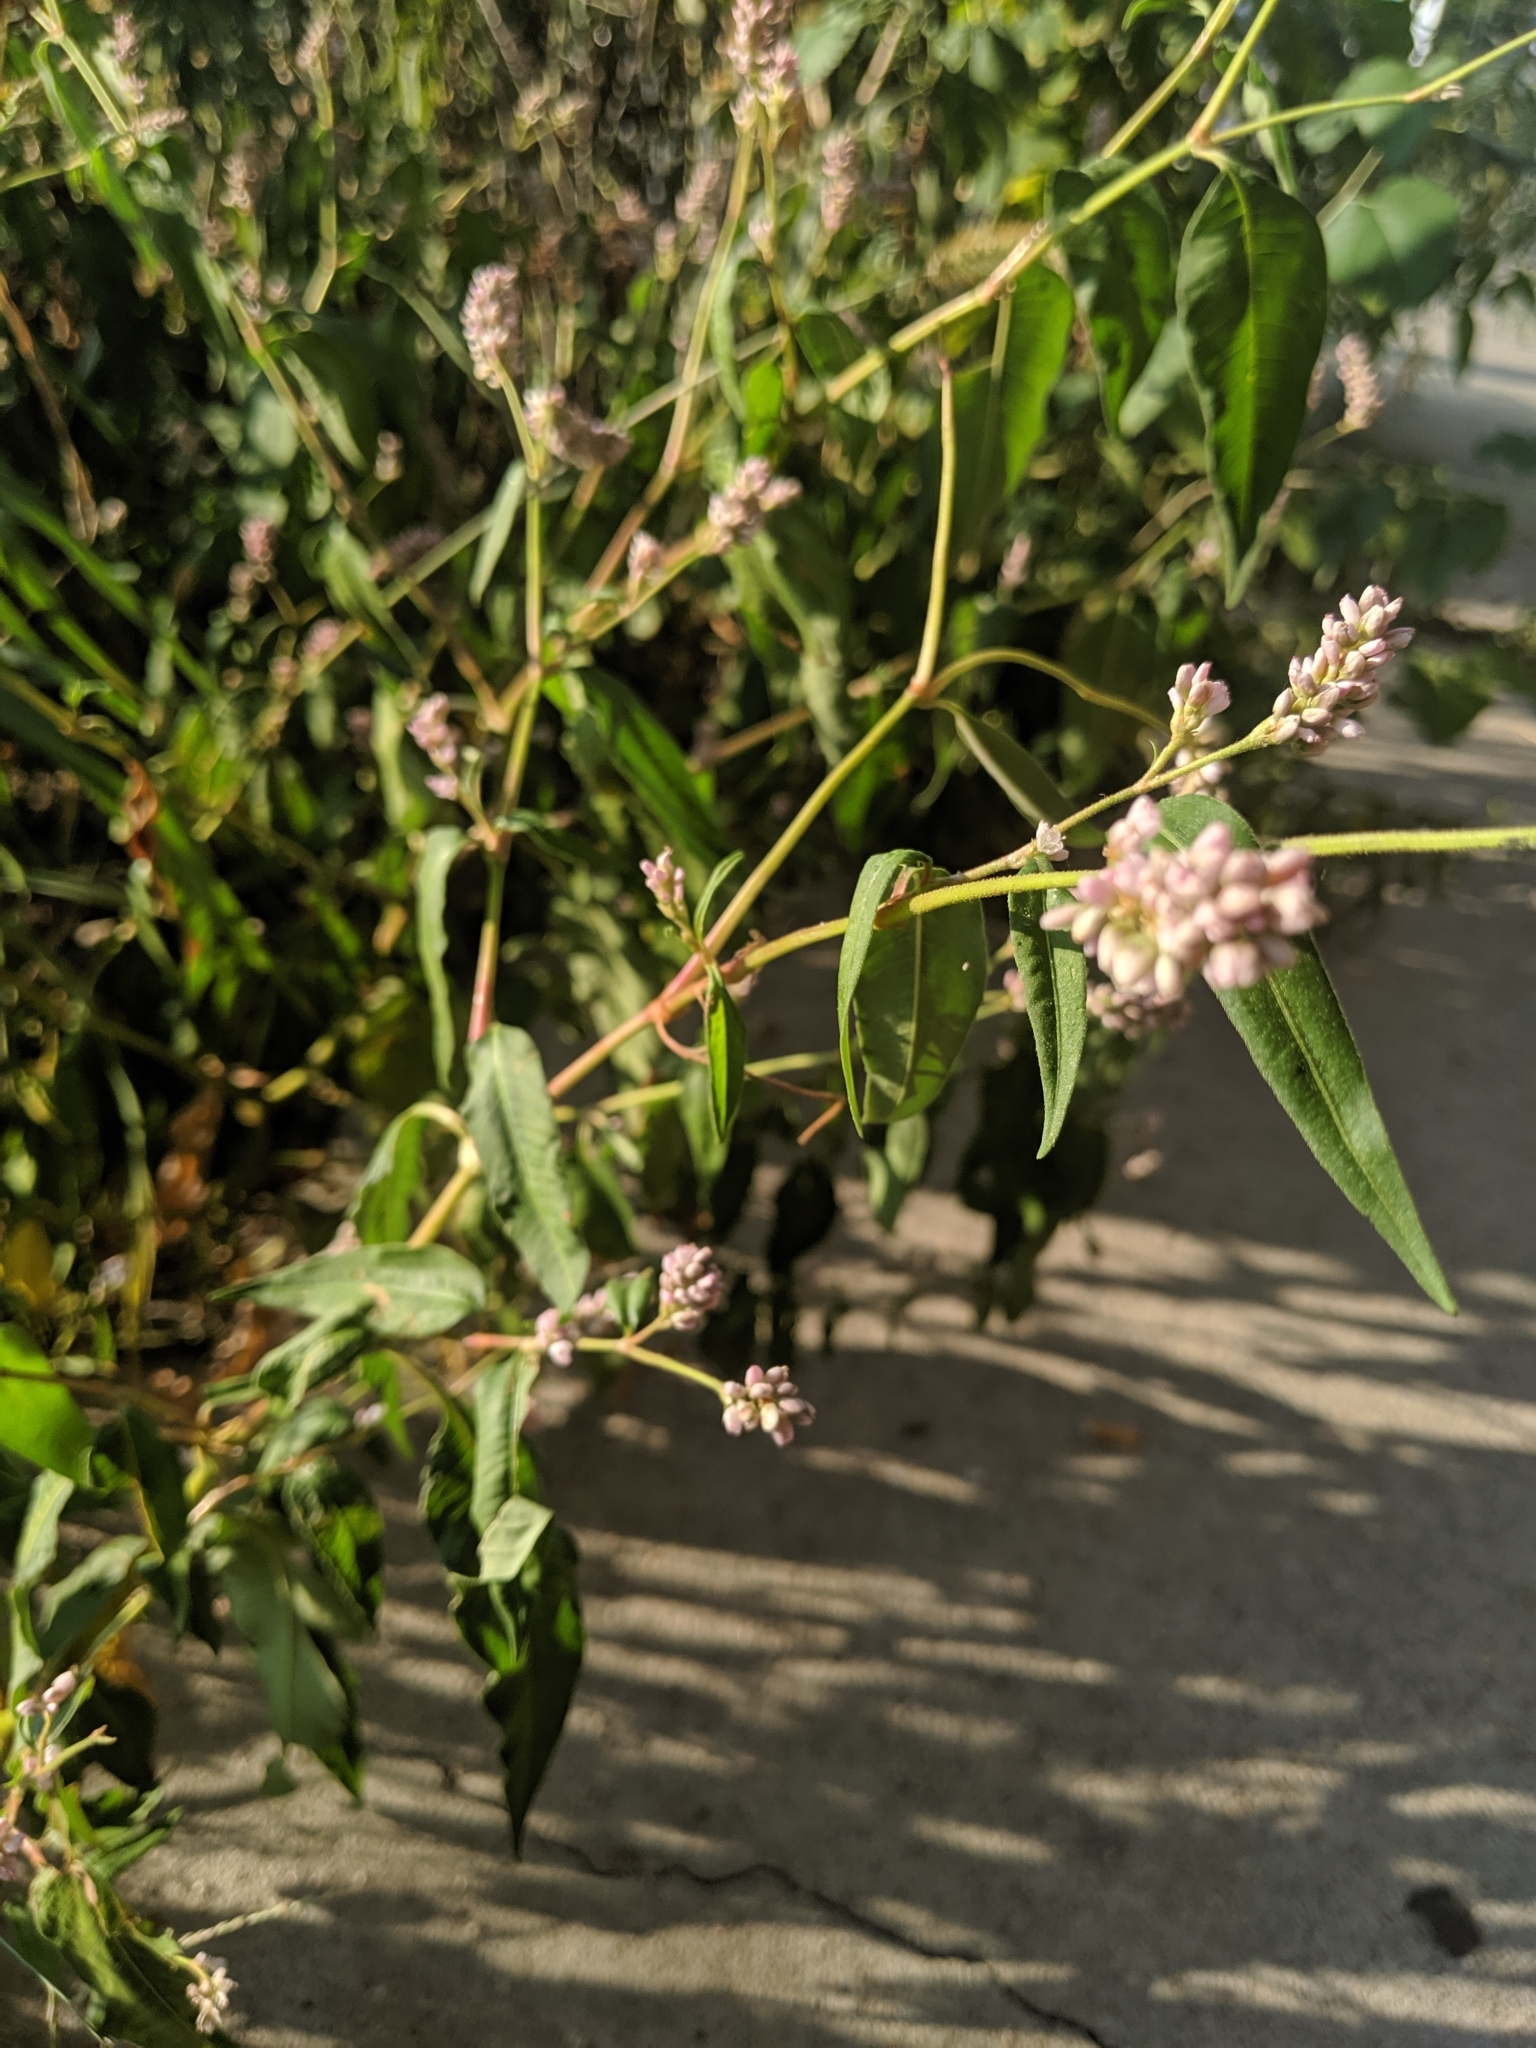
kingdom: Plantae
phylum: Tracheophyta
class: Magnoliopsida
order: Caryophyllales
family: Polygonaceae
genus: Persicaria
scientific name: Persicaria pensylvanica
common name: Pinkweed
